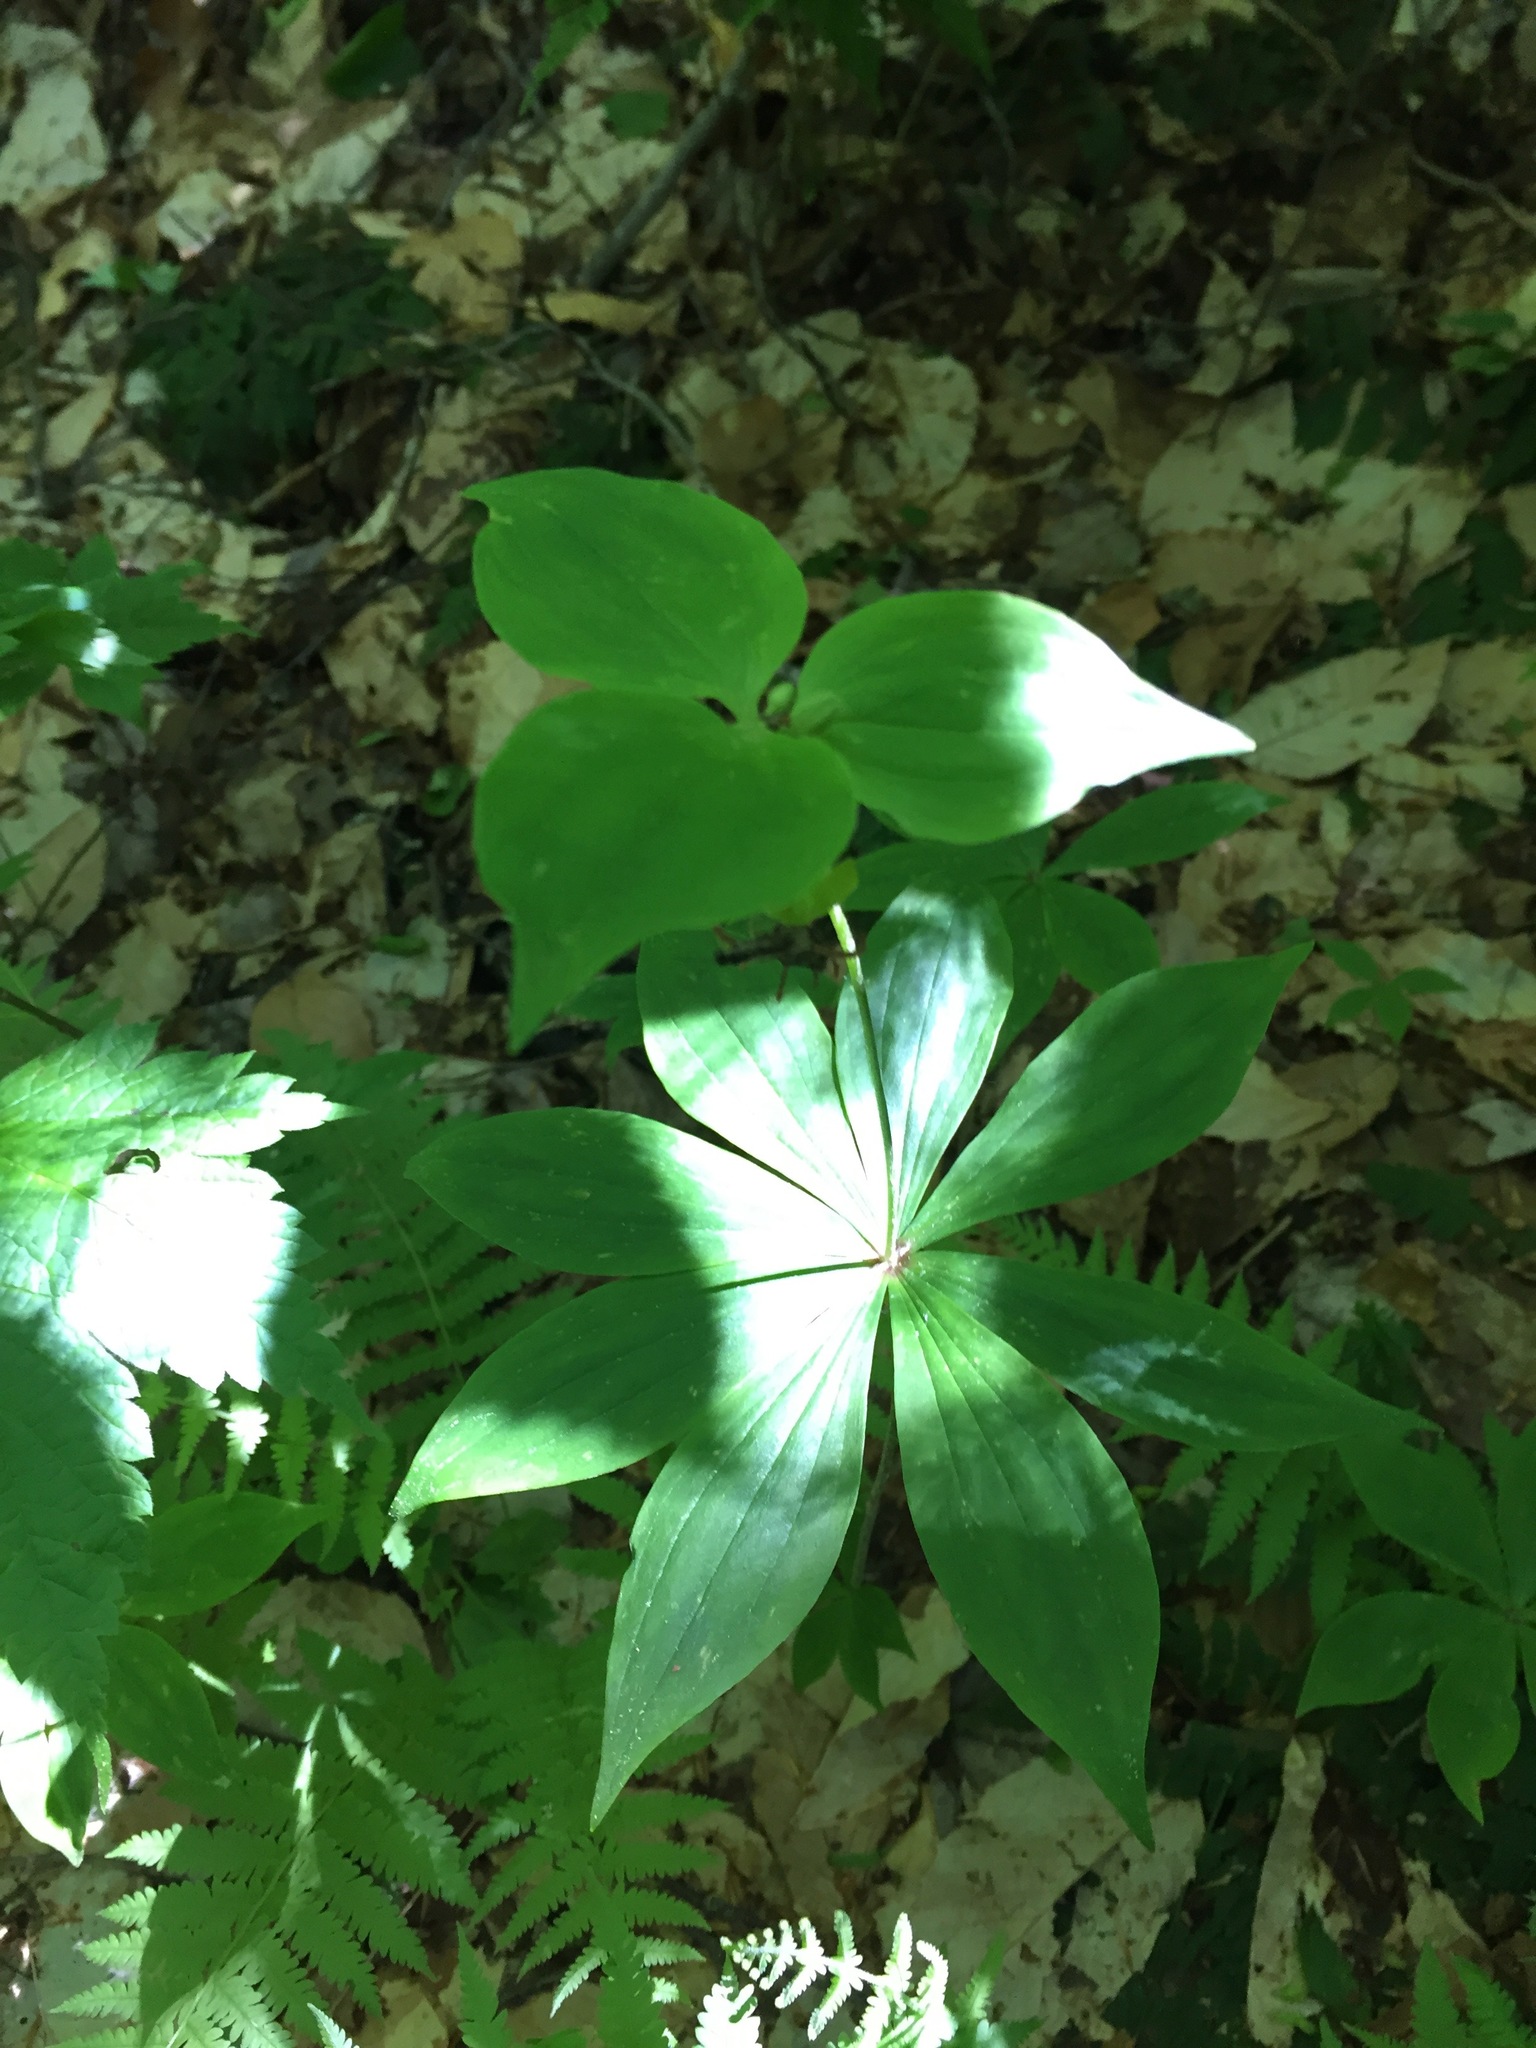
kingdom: Plantae
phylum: Tracheophyta
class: Liliopsida
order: Liliales
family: Liliaceae
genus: Medeola
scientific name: Medeola virginiana
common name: Indian cucumber-root
